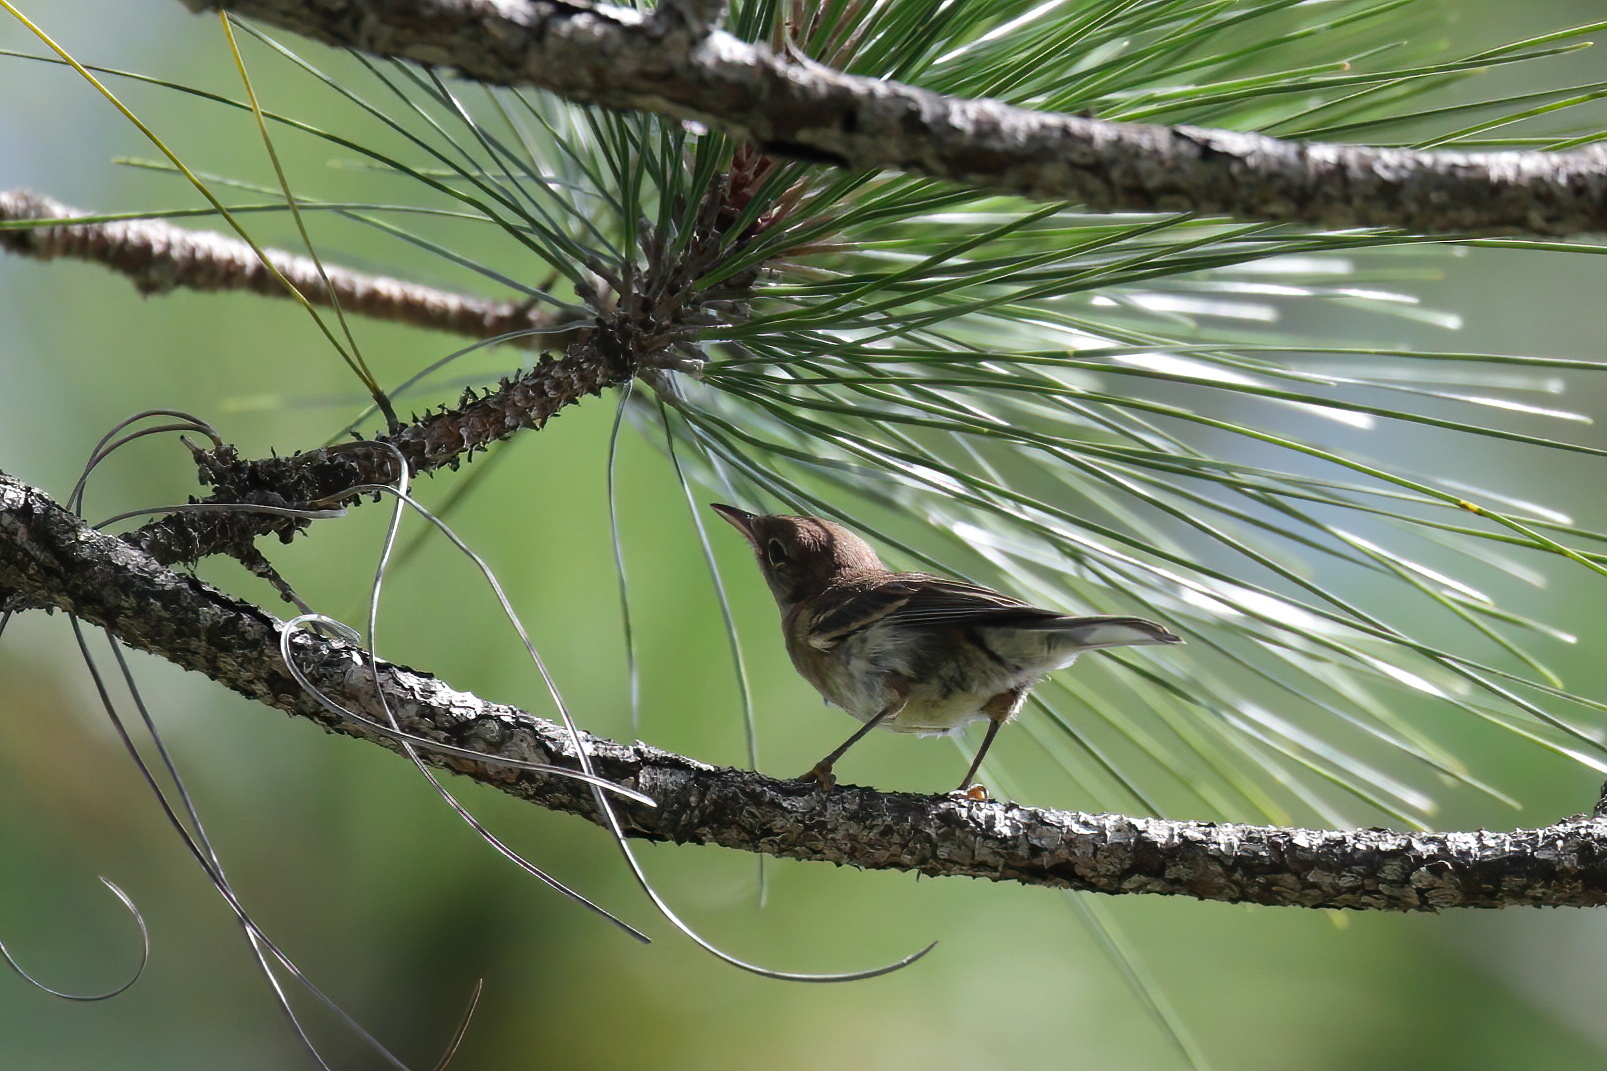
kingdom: Animalia
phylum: Chordata
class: Aves
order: Passeriformes
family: Parulidae
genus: Setophaga
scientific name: Setophaga pinus
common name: Pine warbler
